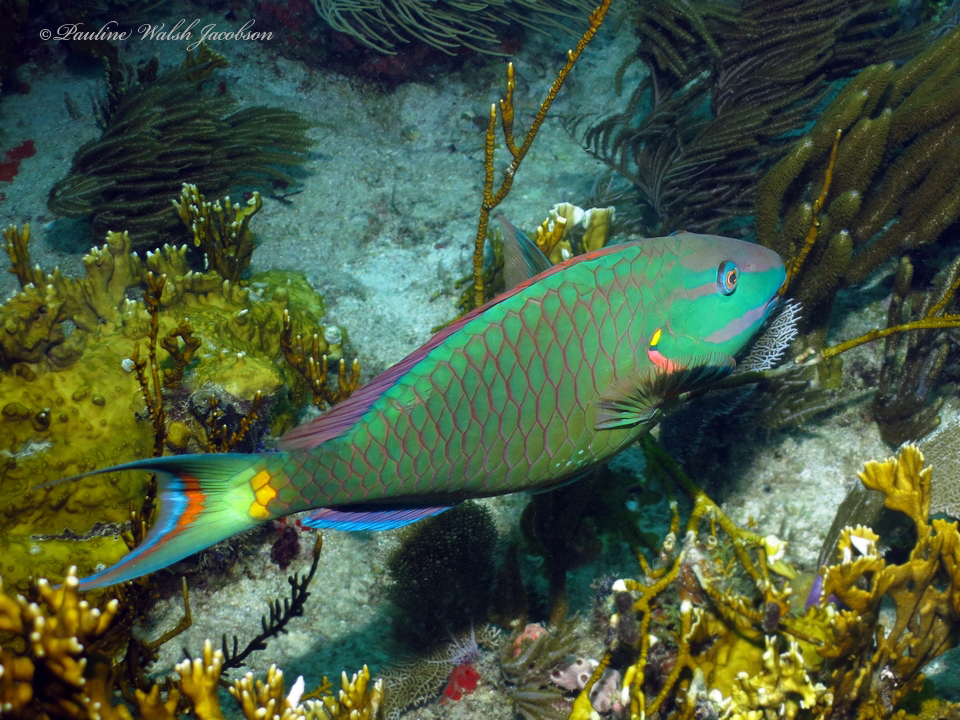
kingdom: Animalia
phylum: Chordata
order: Perciformes
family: Scaridae
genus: Sparisoma
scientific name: Sparisoma viride
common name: Stoplight parrotfish
